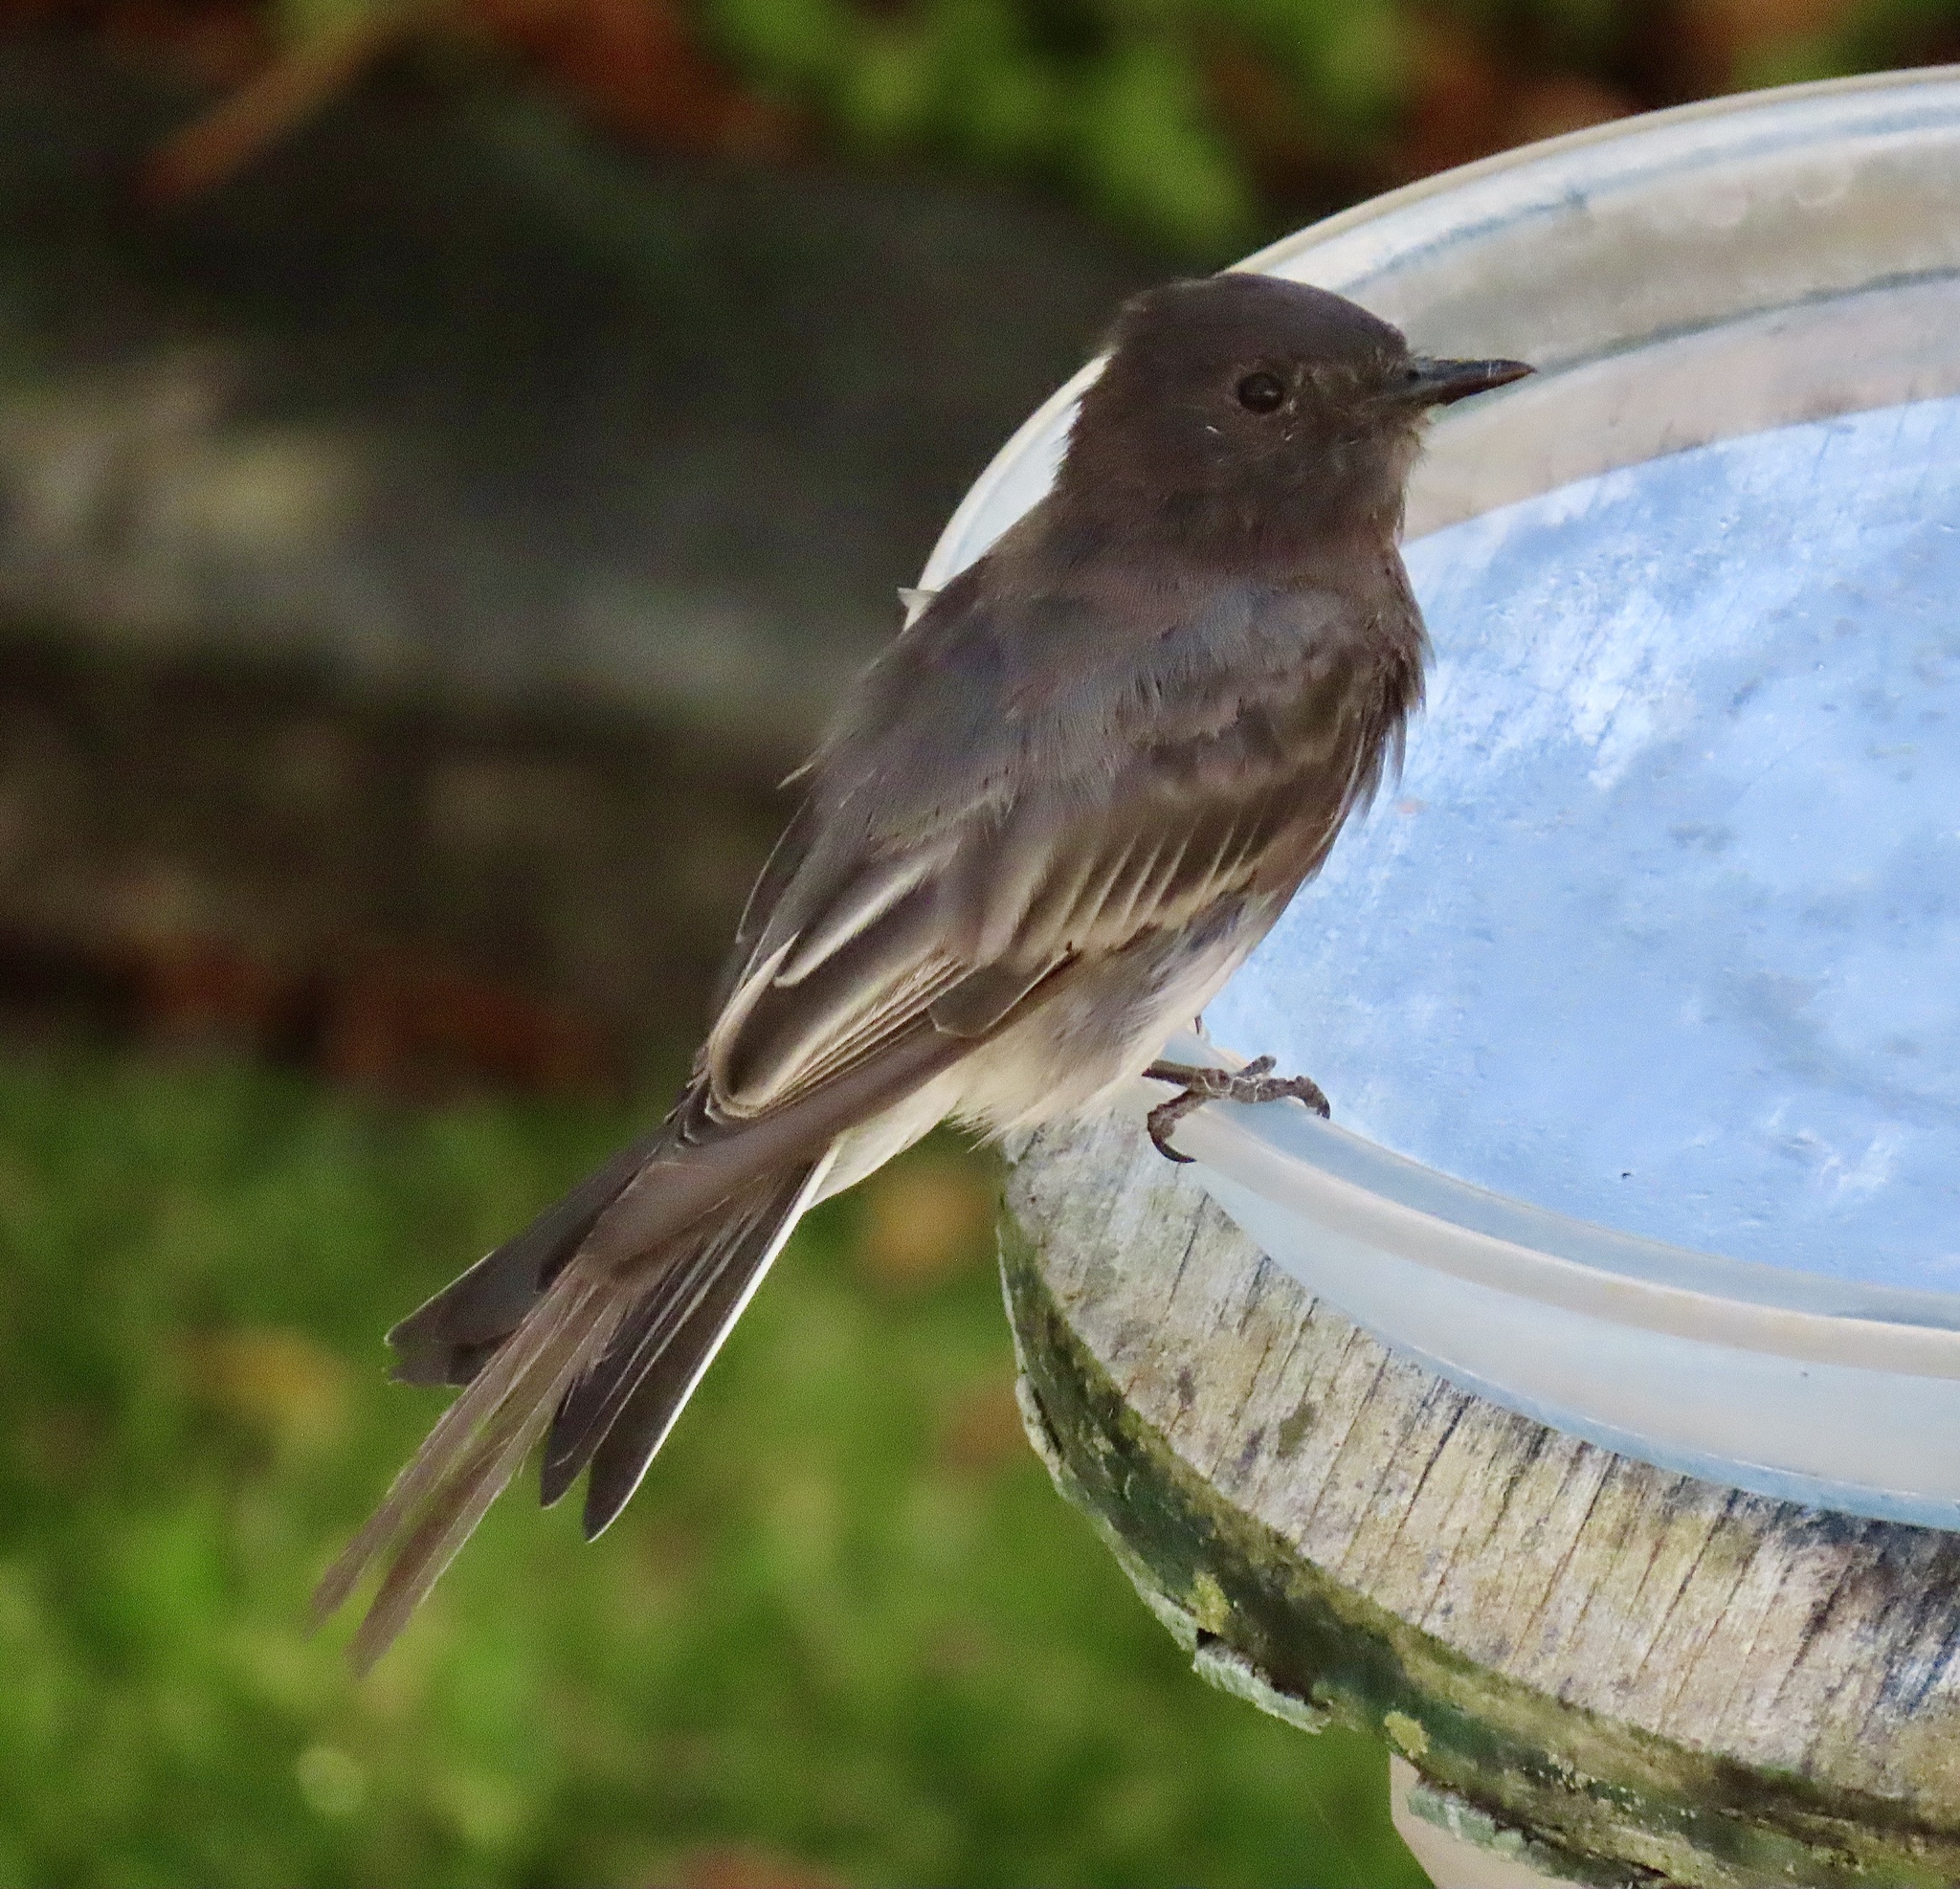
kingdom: Animalia
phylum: Chordata
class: Aves
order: Passeriformes
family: Tyrannidae
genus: Sayornis
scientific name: Sayornis nigricans
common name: Black phoebe
